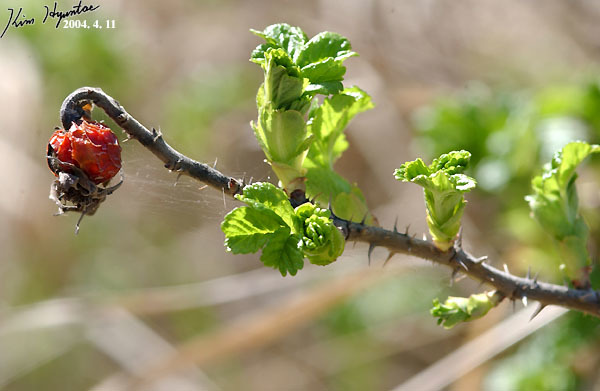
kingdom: Plantae
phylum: Tracheophyta
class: Magnoliopsida
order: Rosales
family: Rosaceae
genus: Rosa
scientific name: Rosa rugosa
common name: Japanese rose
